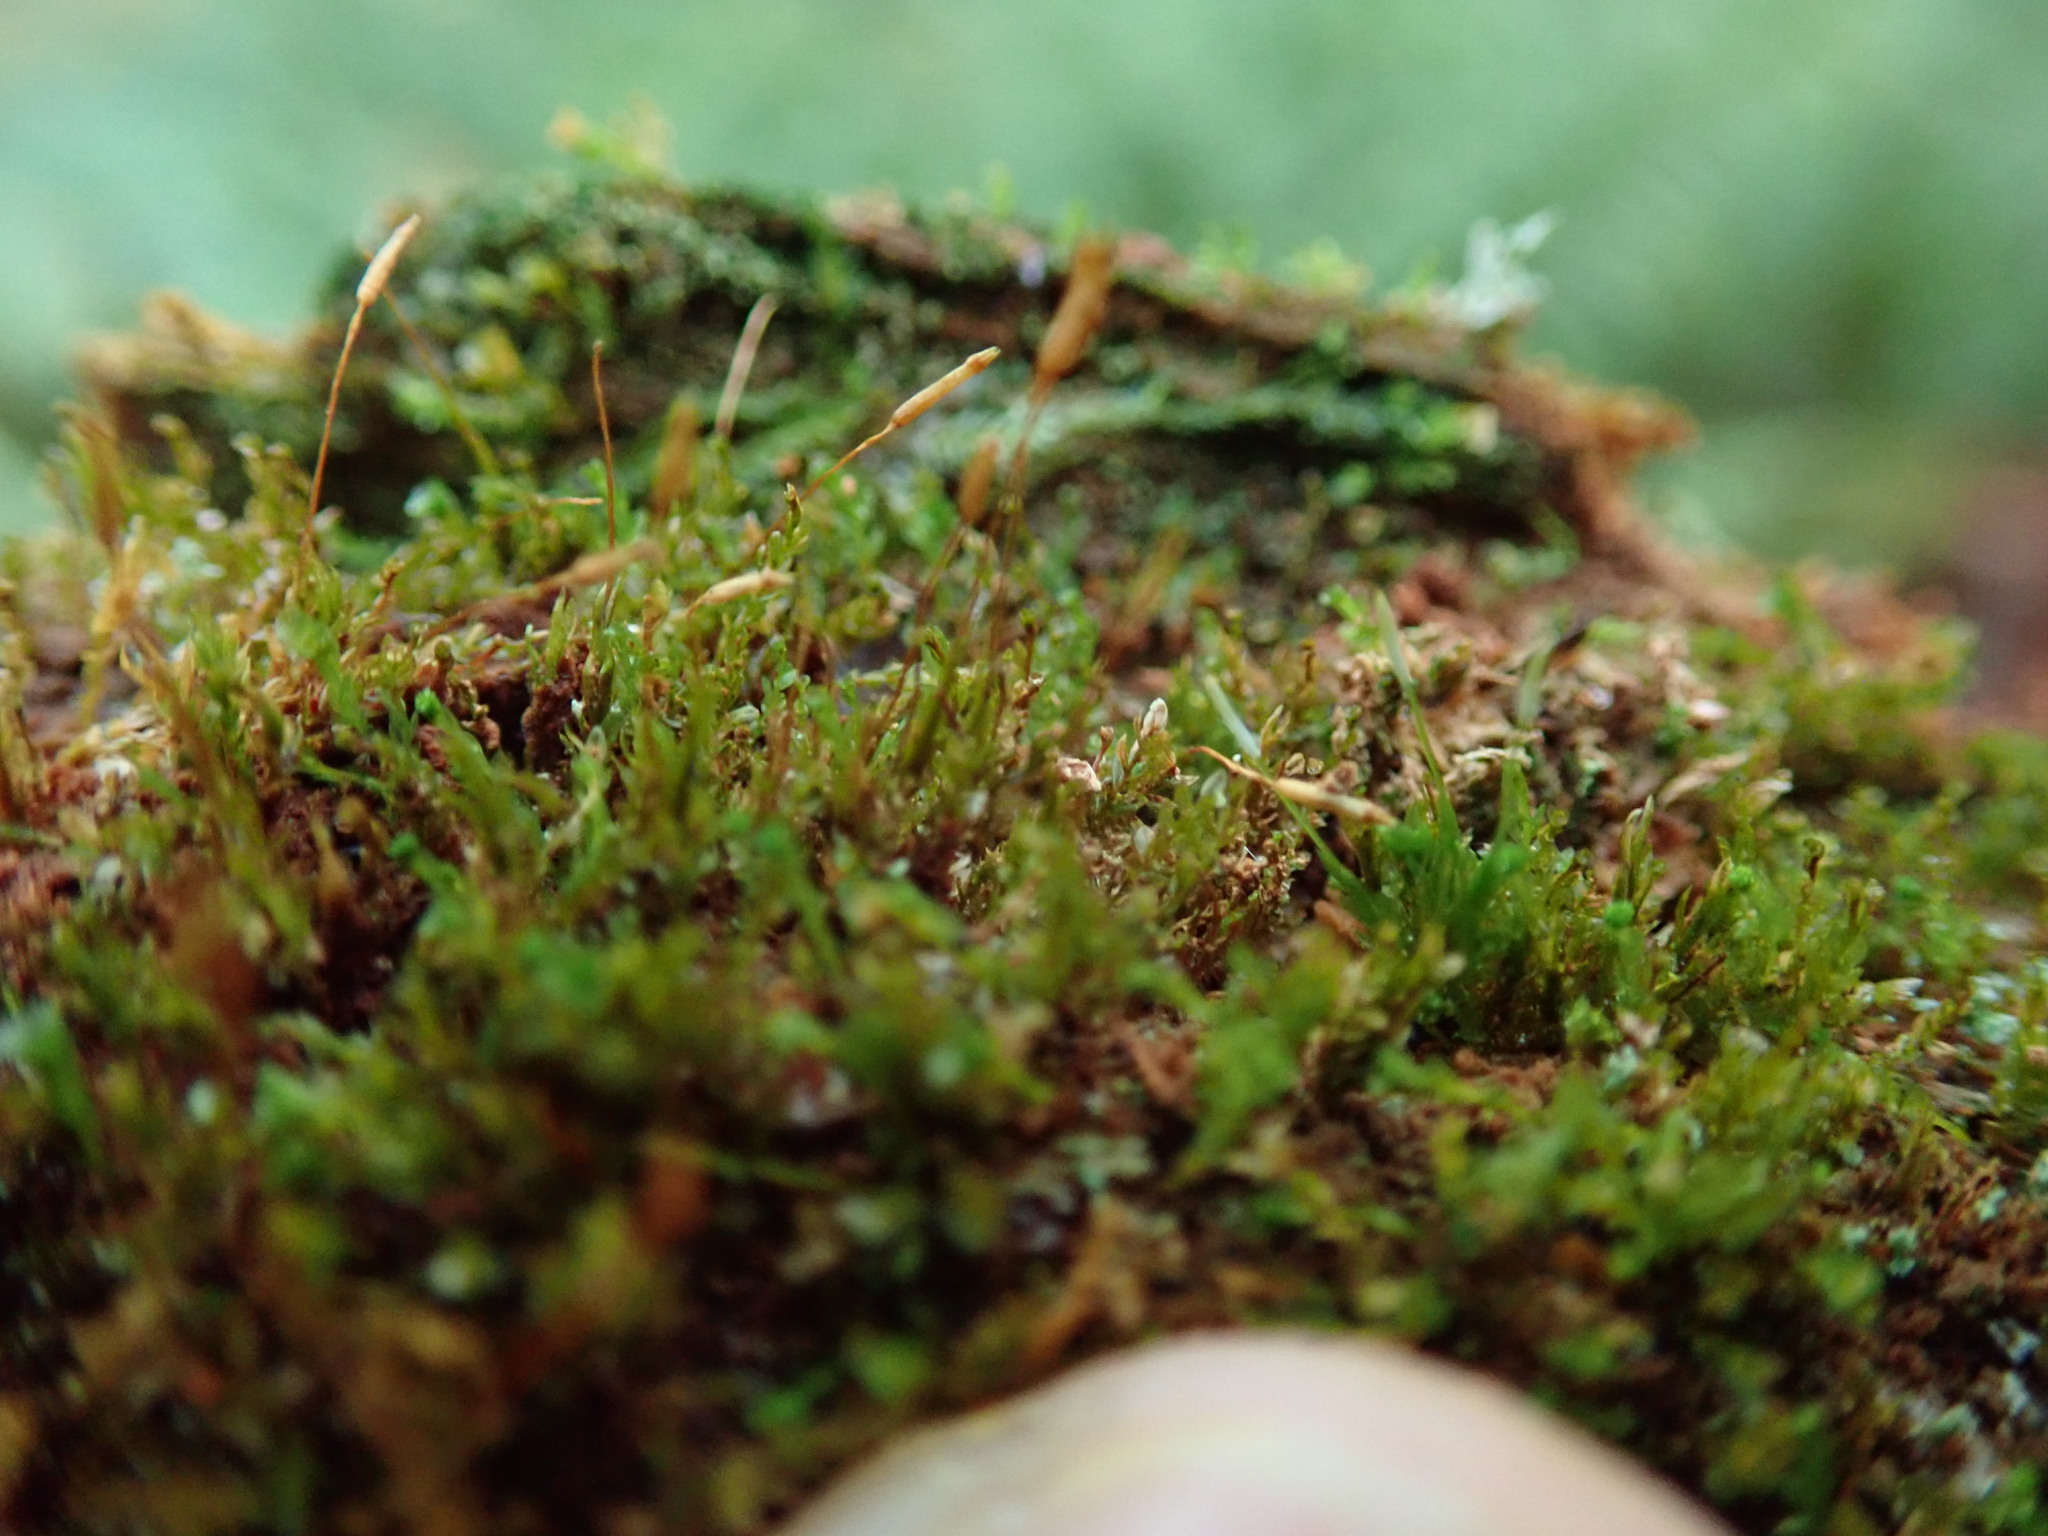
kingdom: Plantae
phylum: Bryophyta
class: Polytrichopsida
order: Tetraphidales
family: Tetraphidaceae
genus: Tetraphis
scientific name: Tetraphis pellucida
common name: Common four-toothed moss
